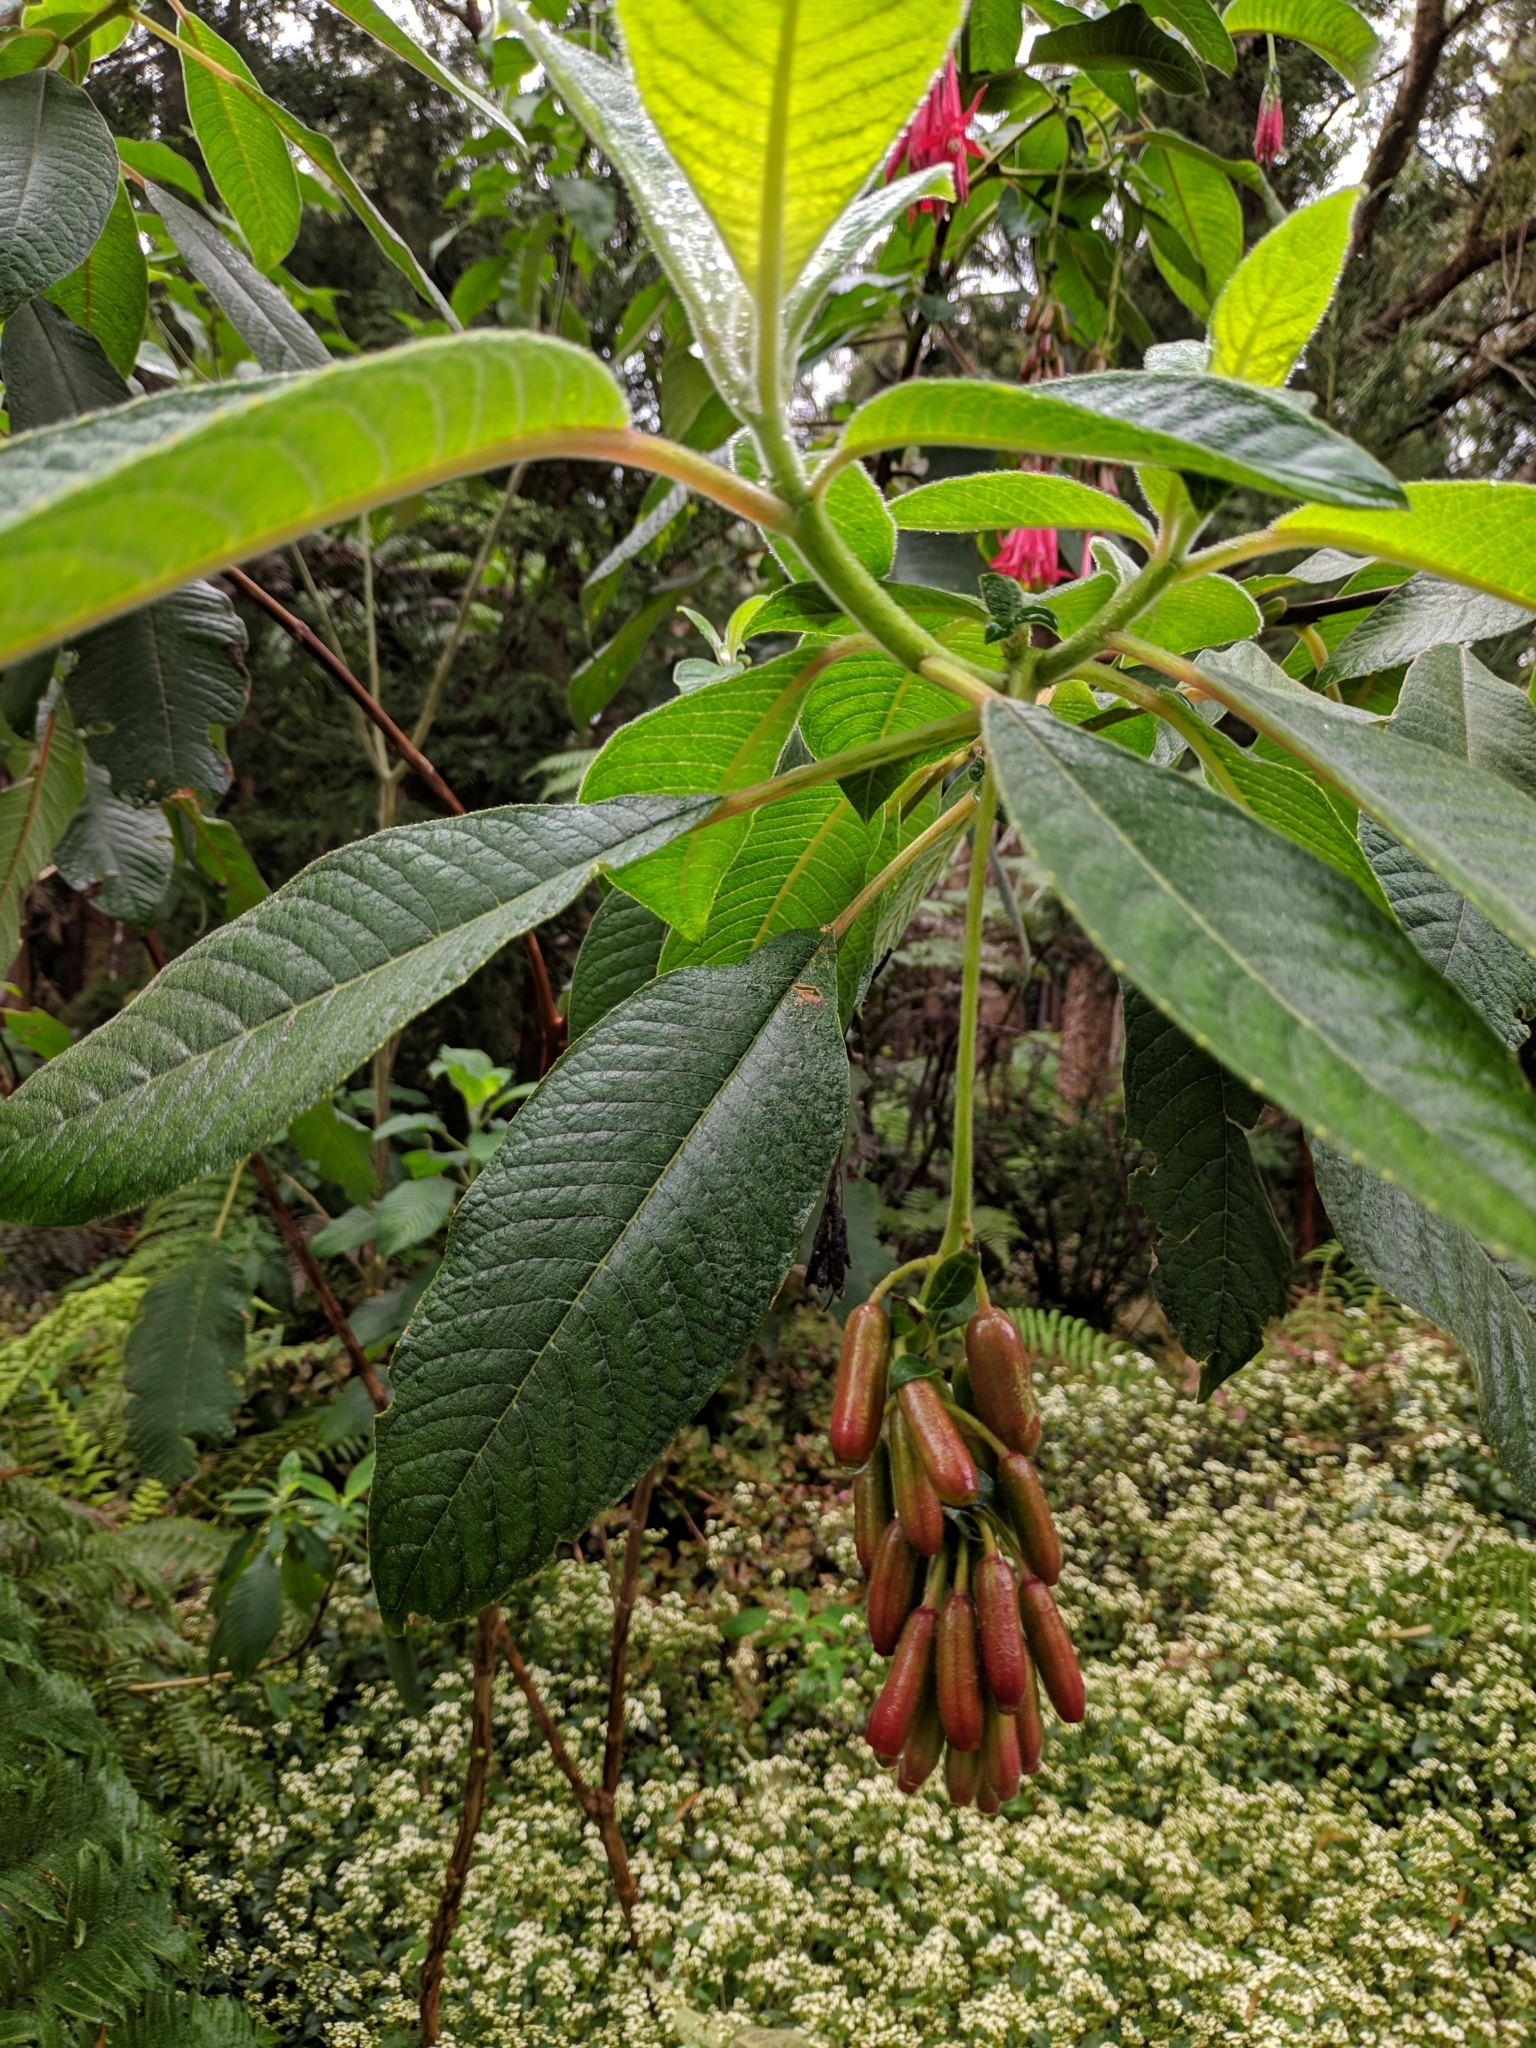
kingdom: Plantae
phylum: Tracheophyta
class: Magnoliopsida
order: Myrtales
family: Onagraceae
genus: Fuchsia
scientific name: Fuchsia boliviana
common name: Bolivian fuchsia
